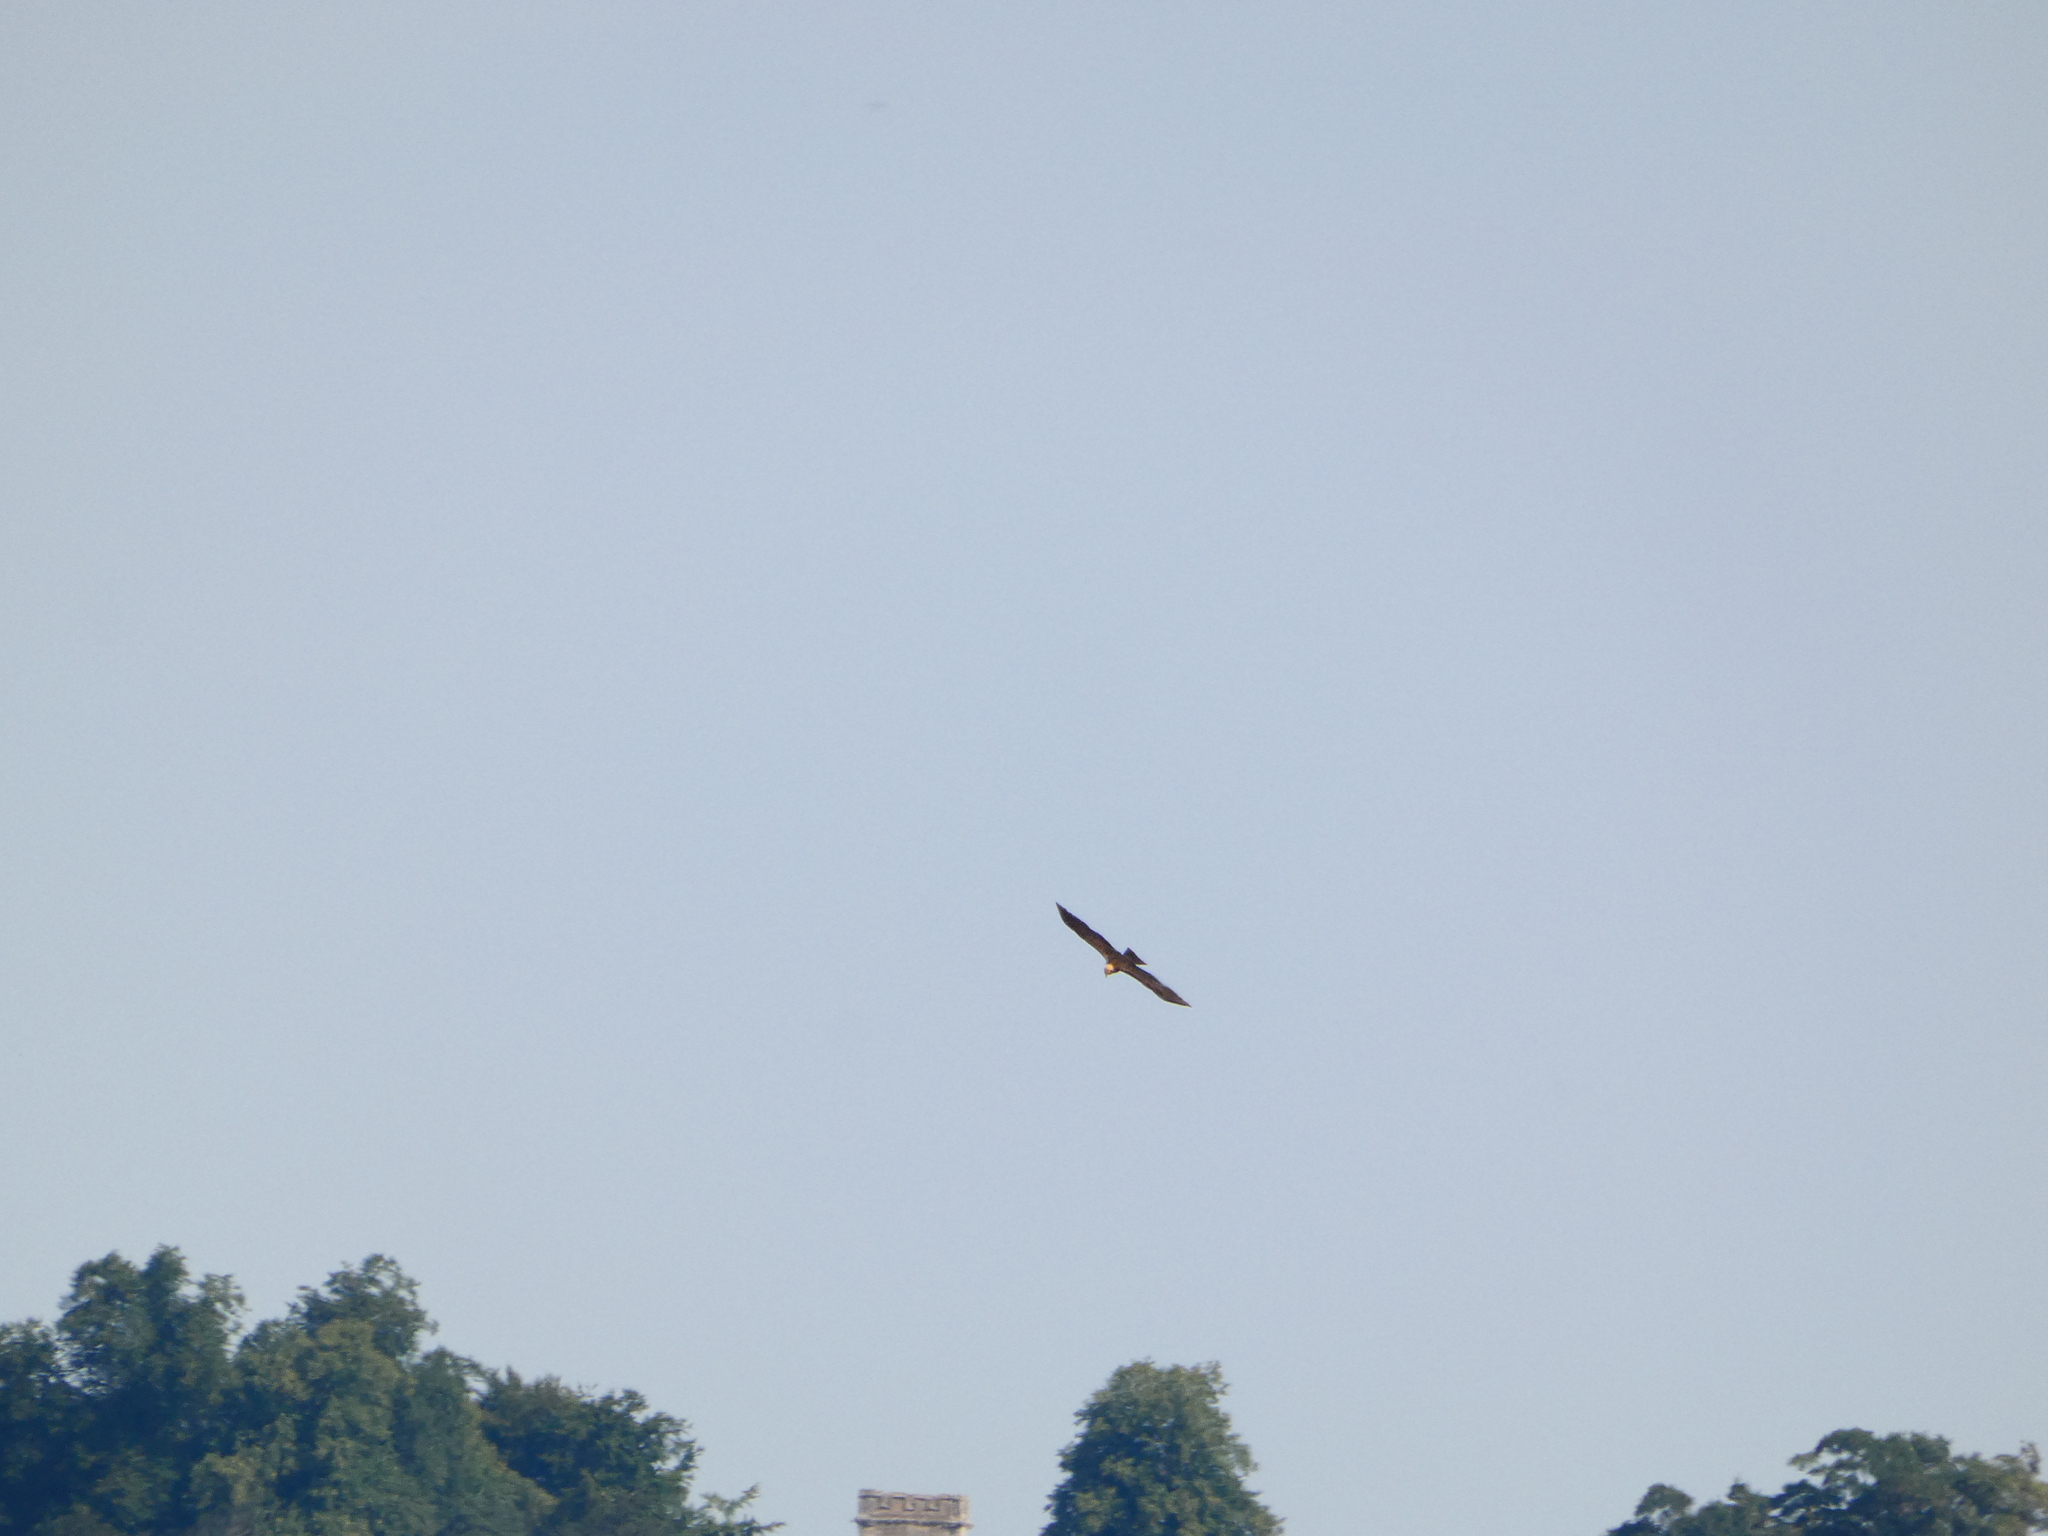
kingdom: Animalia
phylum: Chordata
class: Aves
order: Accipitriformes
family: Accipitridae
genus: Circus
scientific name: Circus aeruginosus
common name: Western marsh harrier
